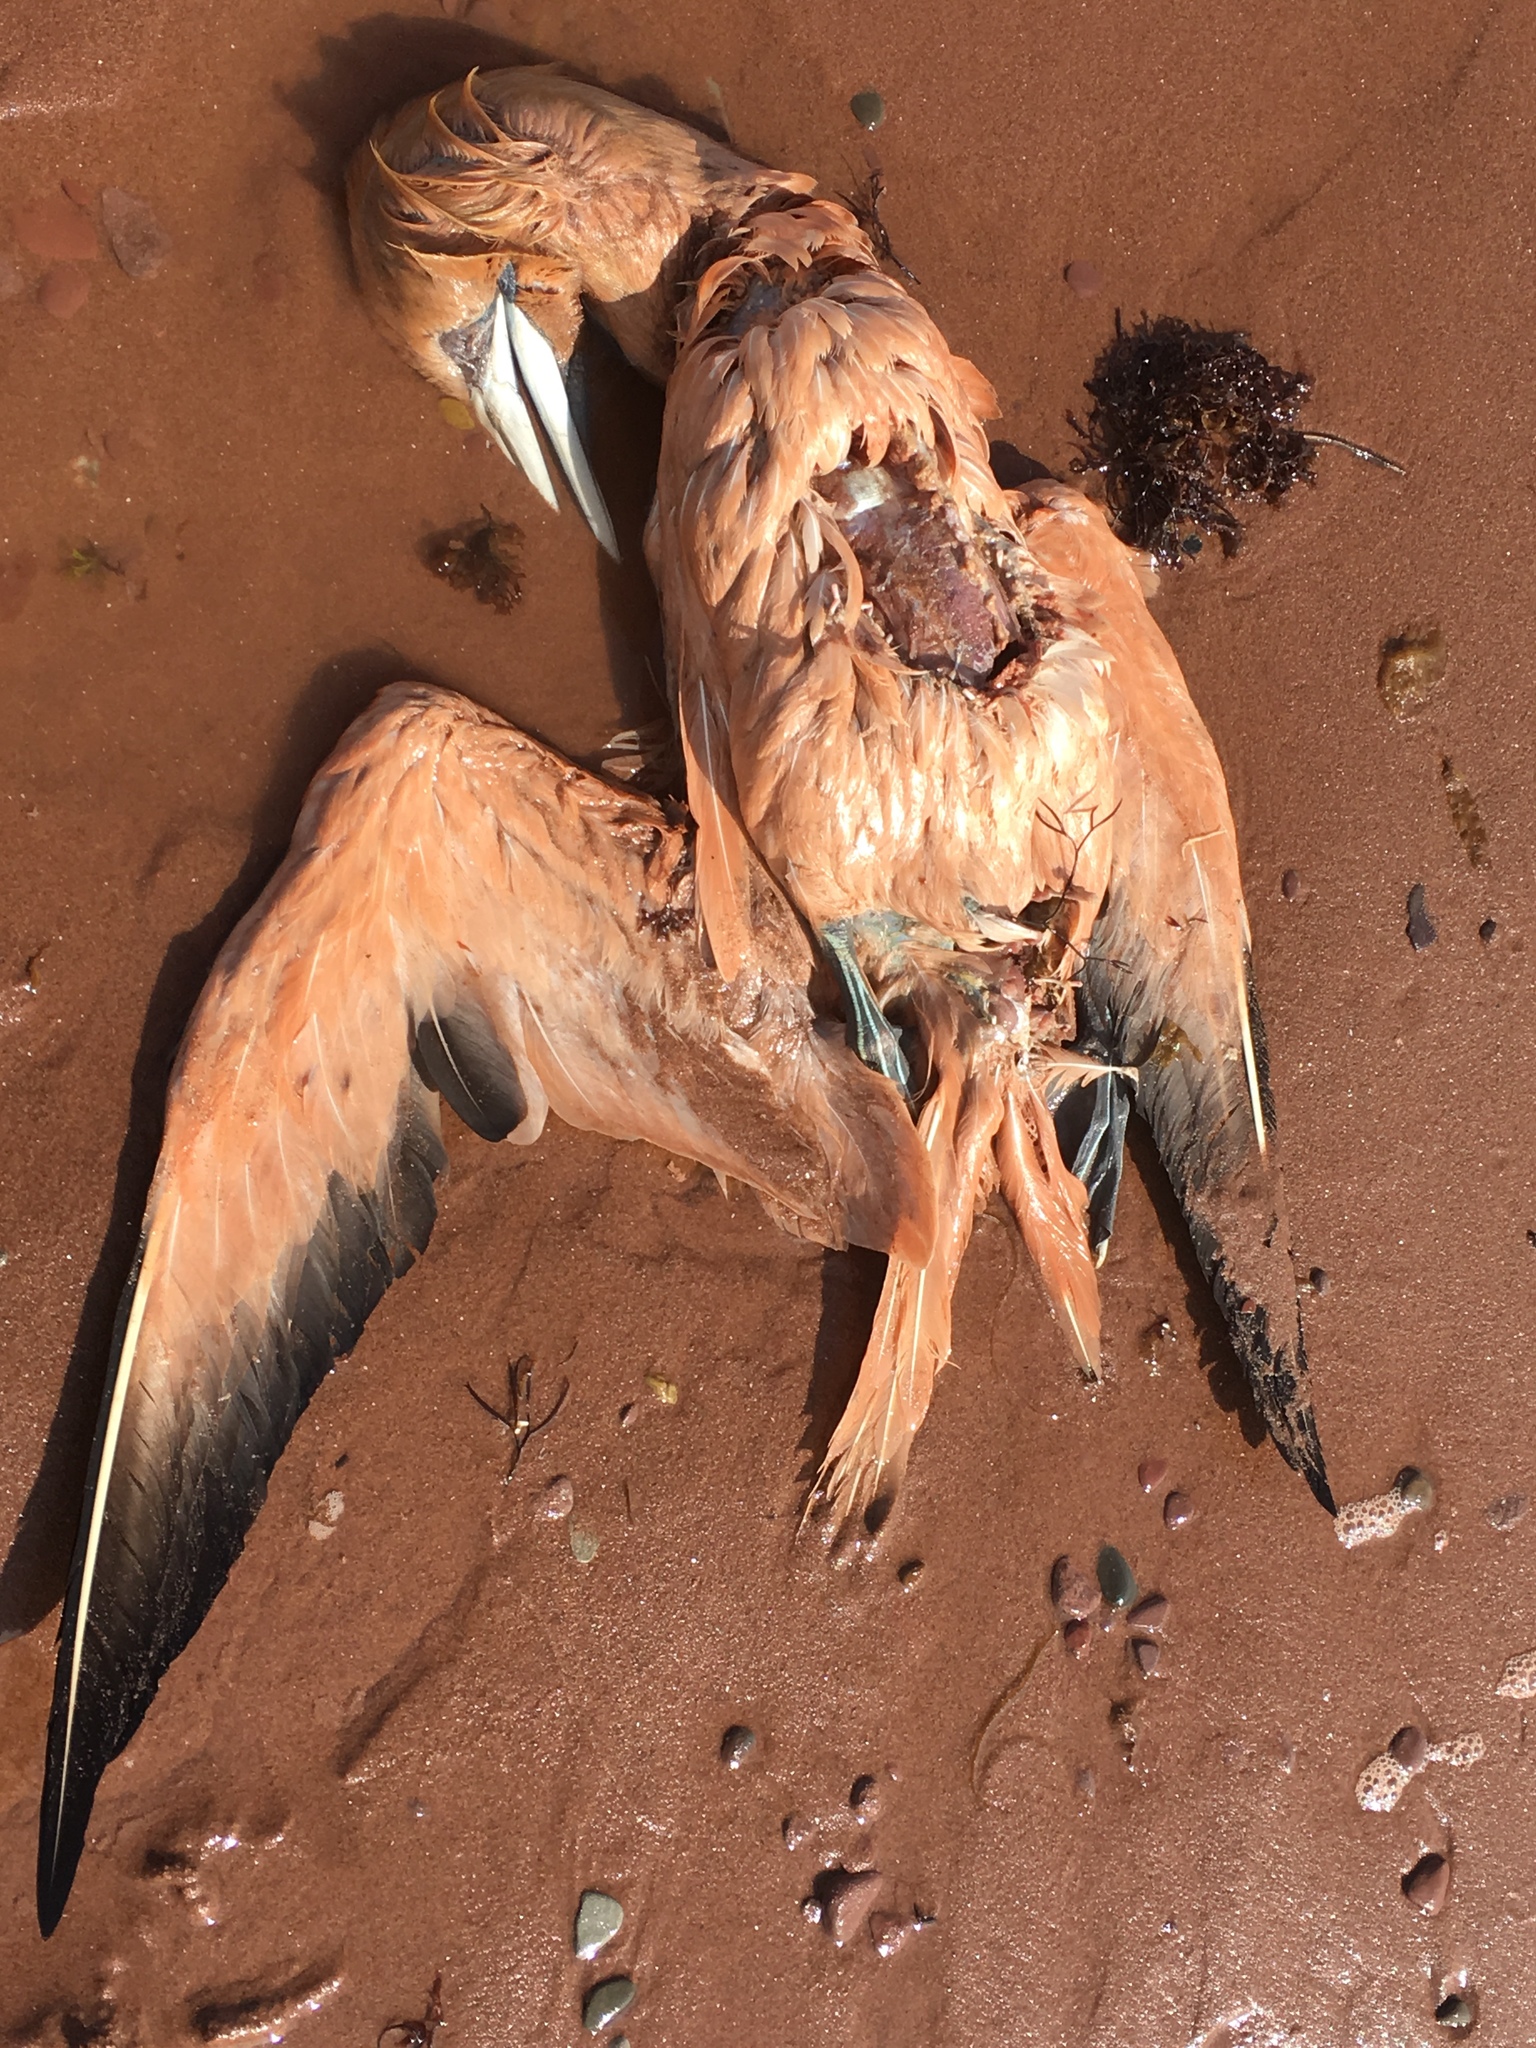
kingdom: Animalia
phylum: Chordata
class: Aves
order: Suliformes
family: Sulidae
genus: Morus
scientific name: Morus bassanus
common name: Northern gannet
